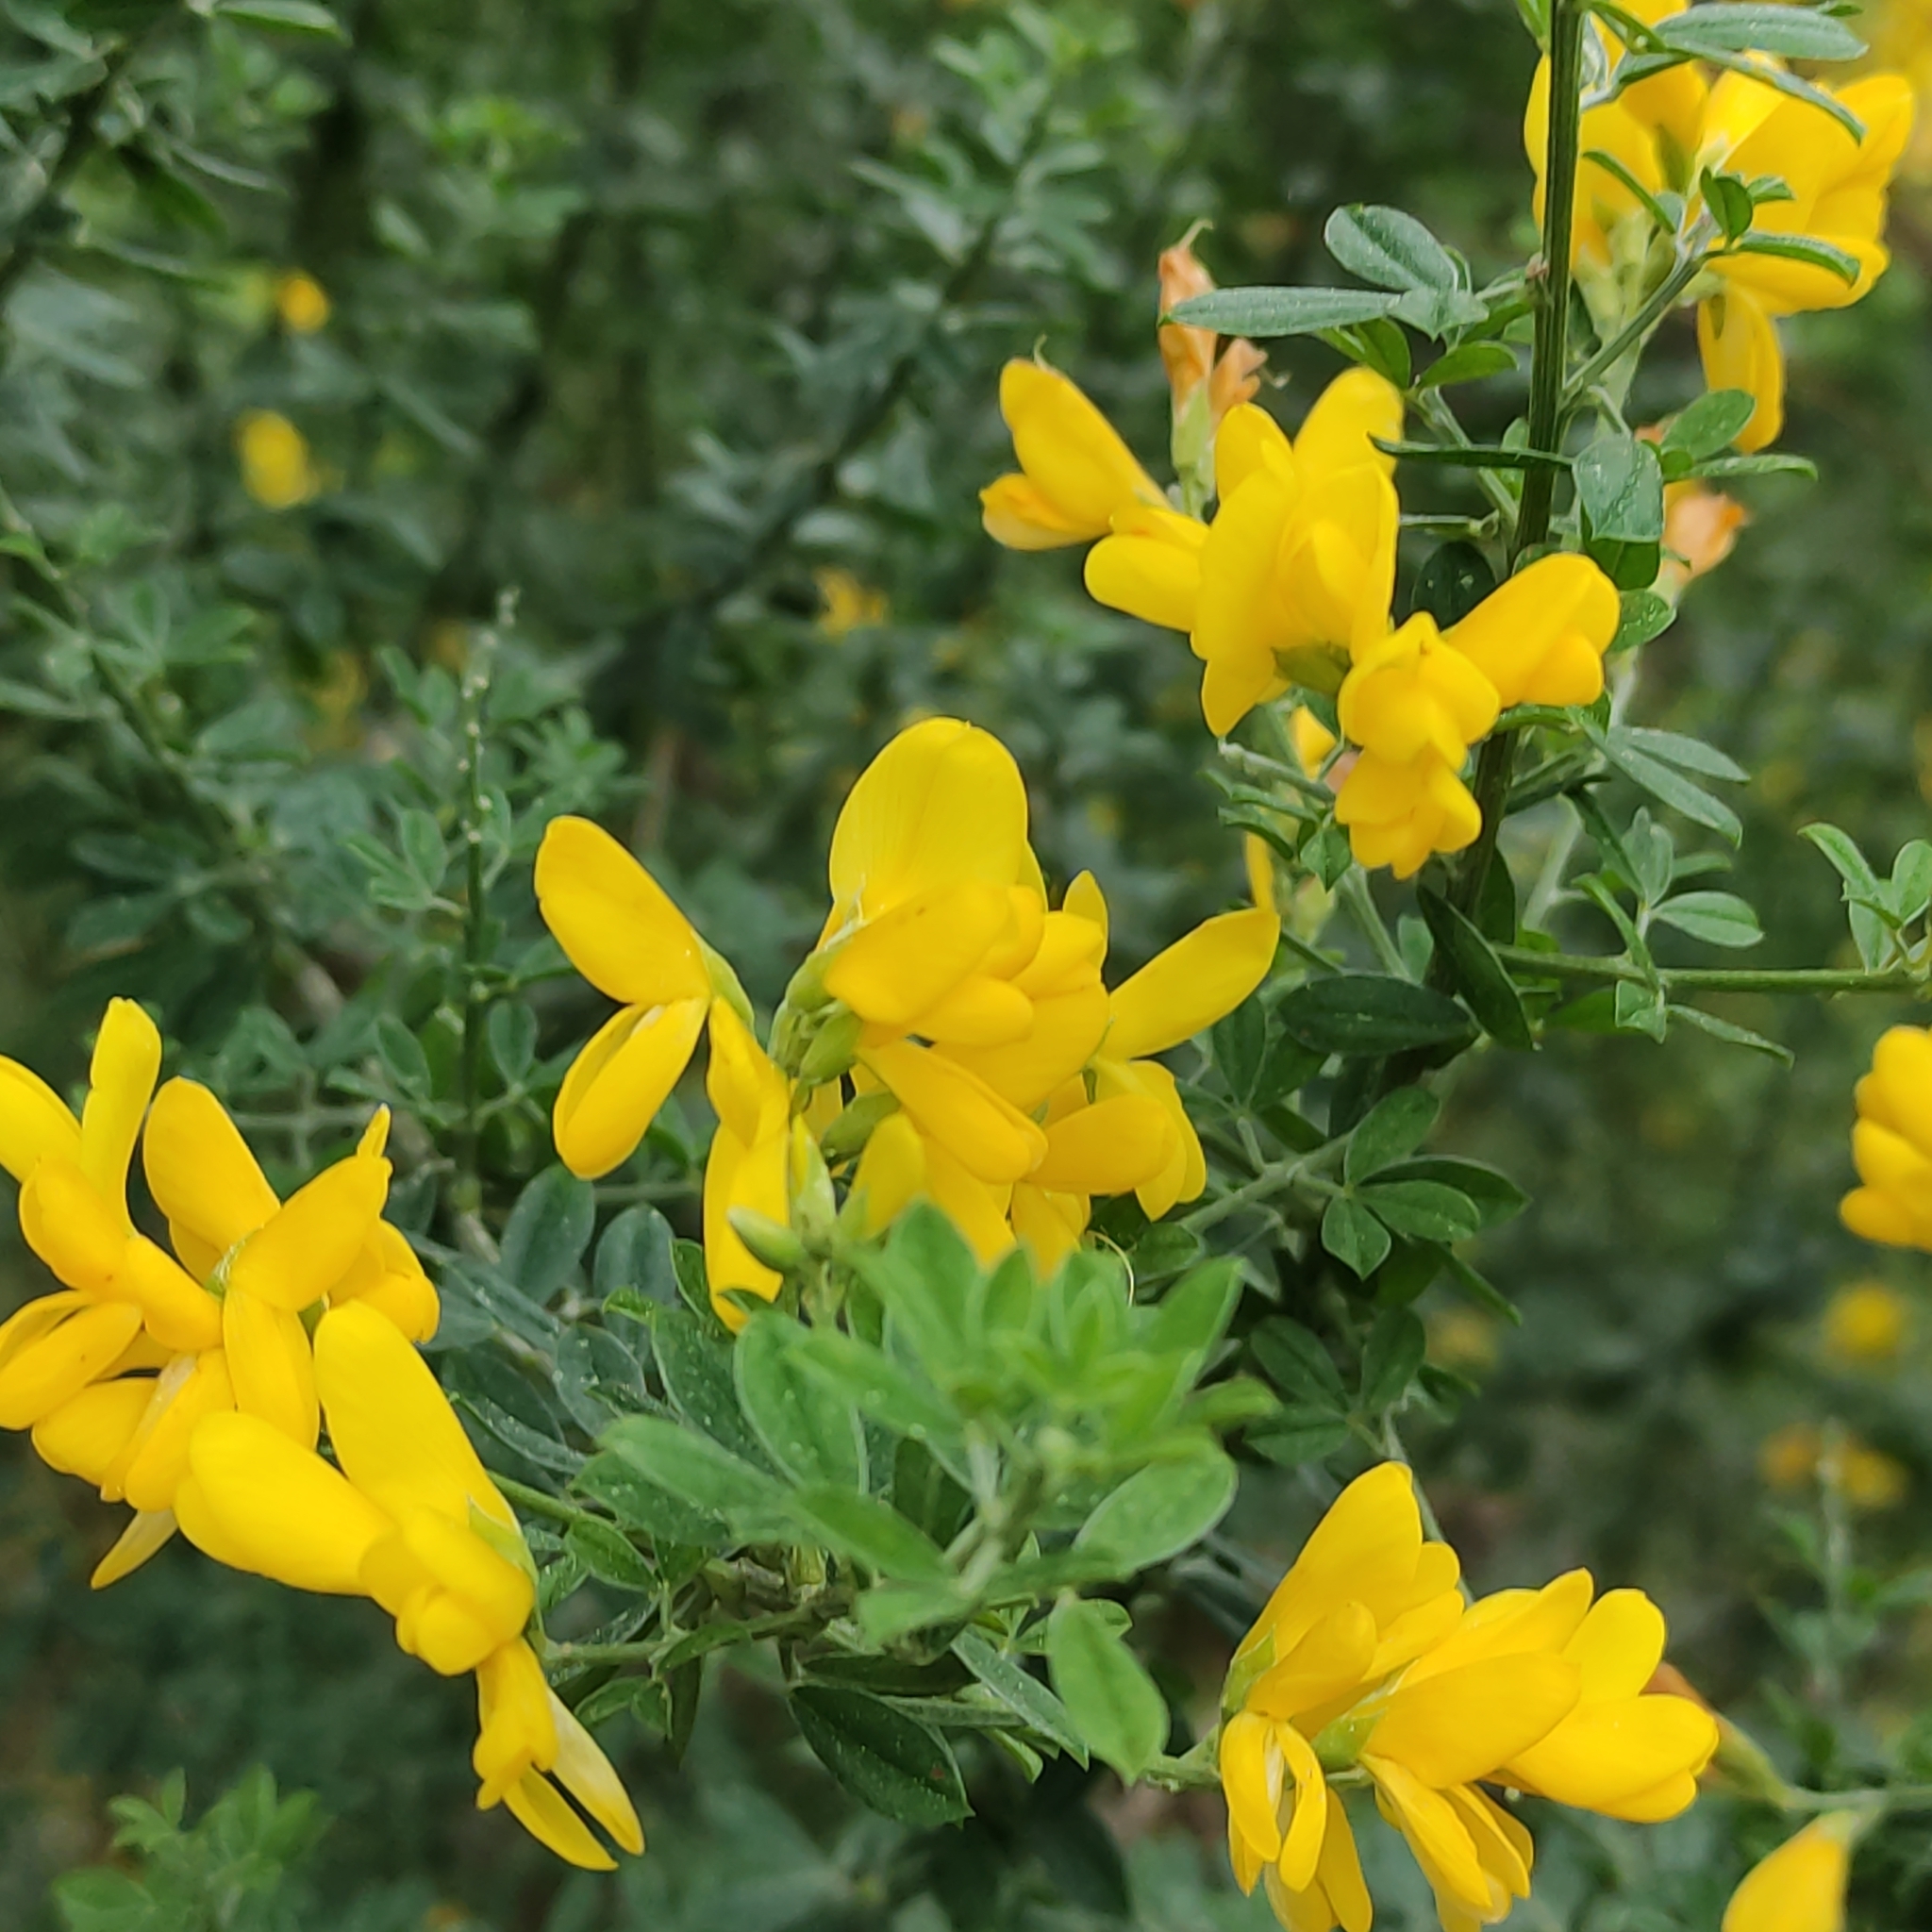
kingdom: Plantae
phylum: Tracheophyta
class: Magnoliopsida
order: Fabales
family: Fabaceae
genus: Genista
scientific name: Genista monspessulana
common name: Montpellier broom
